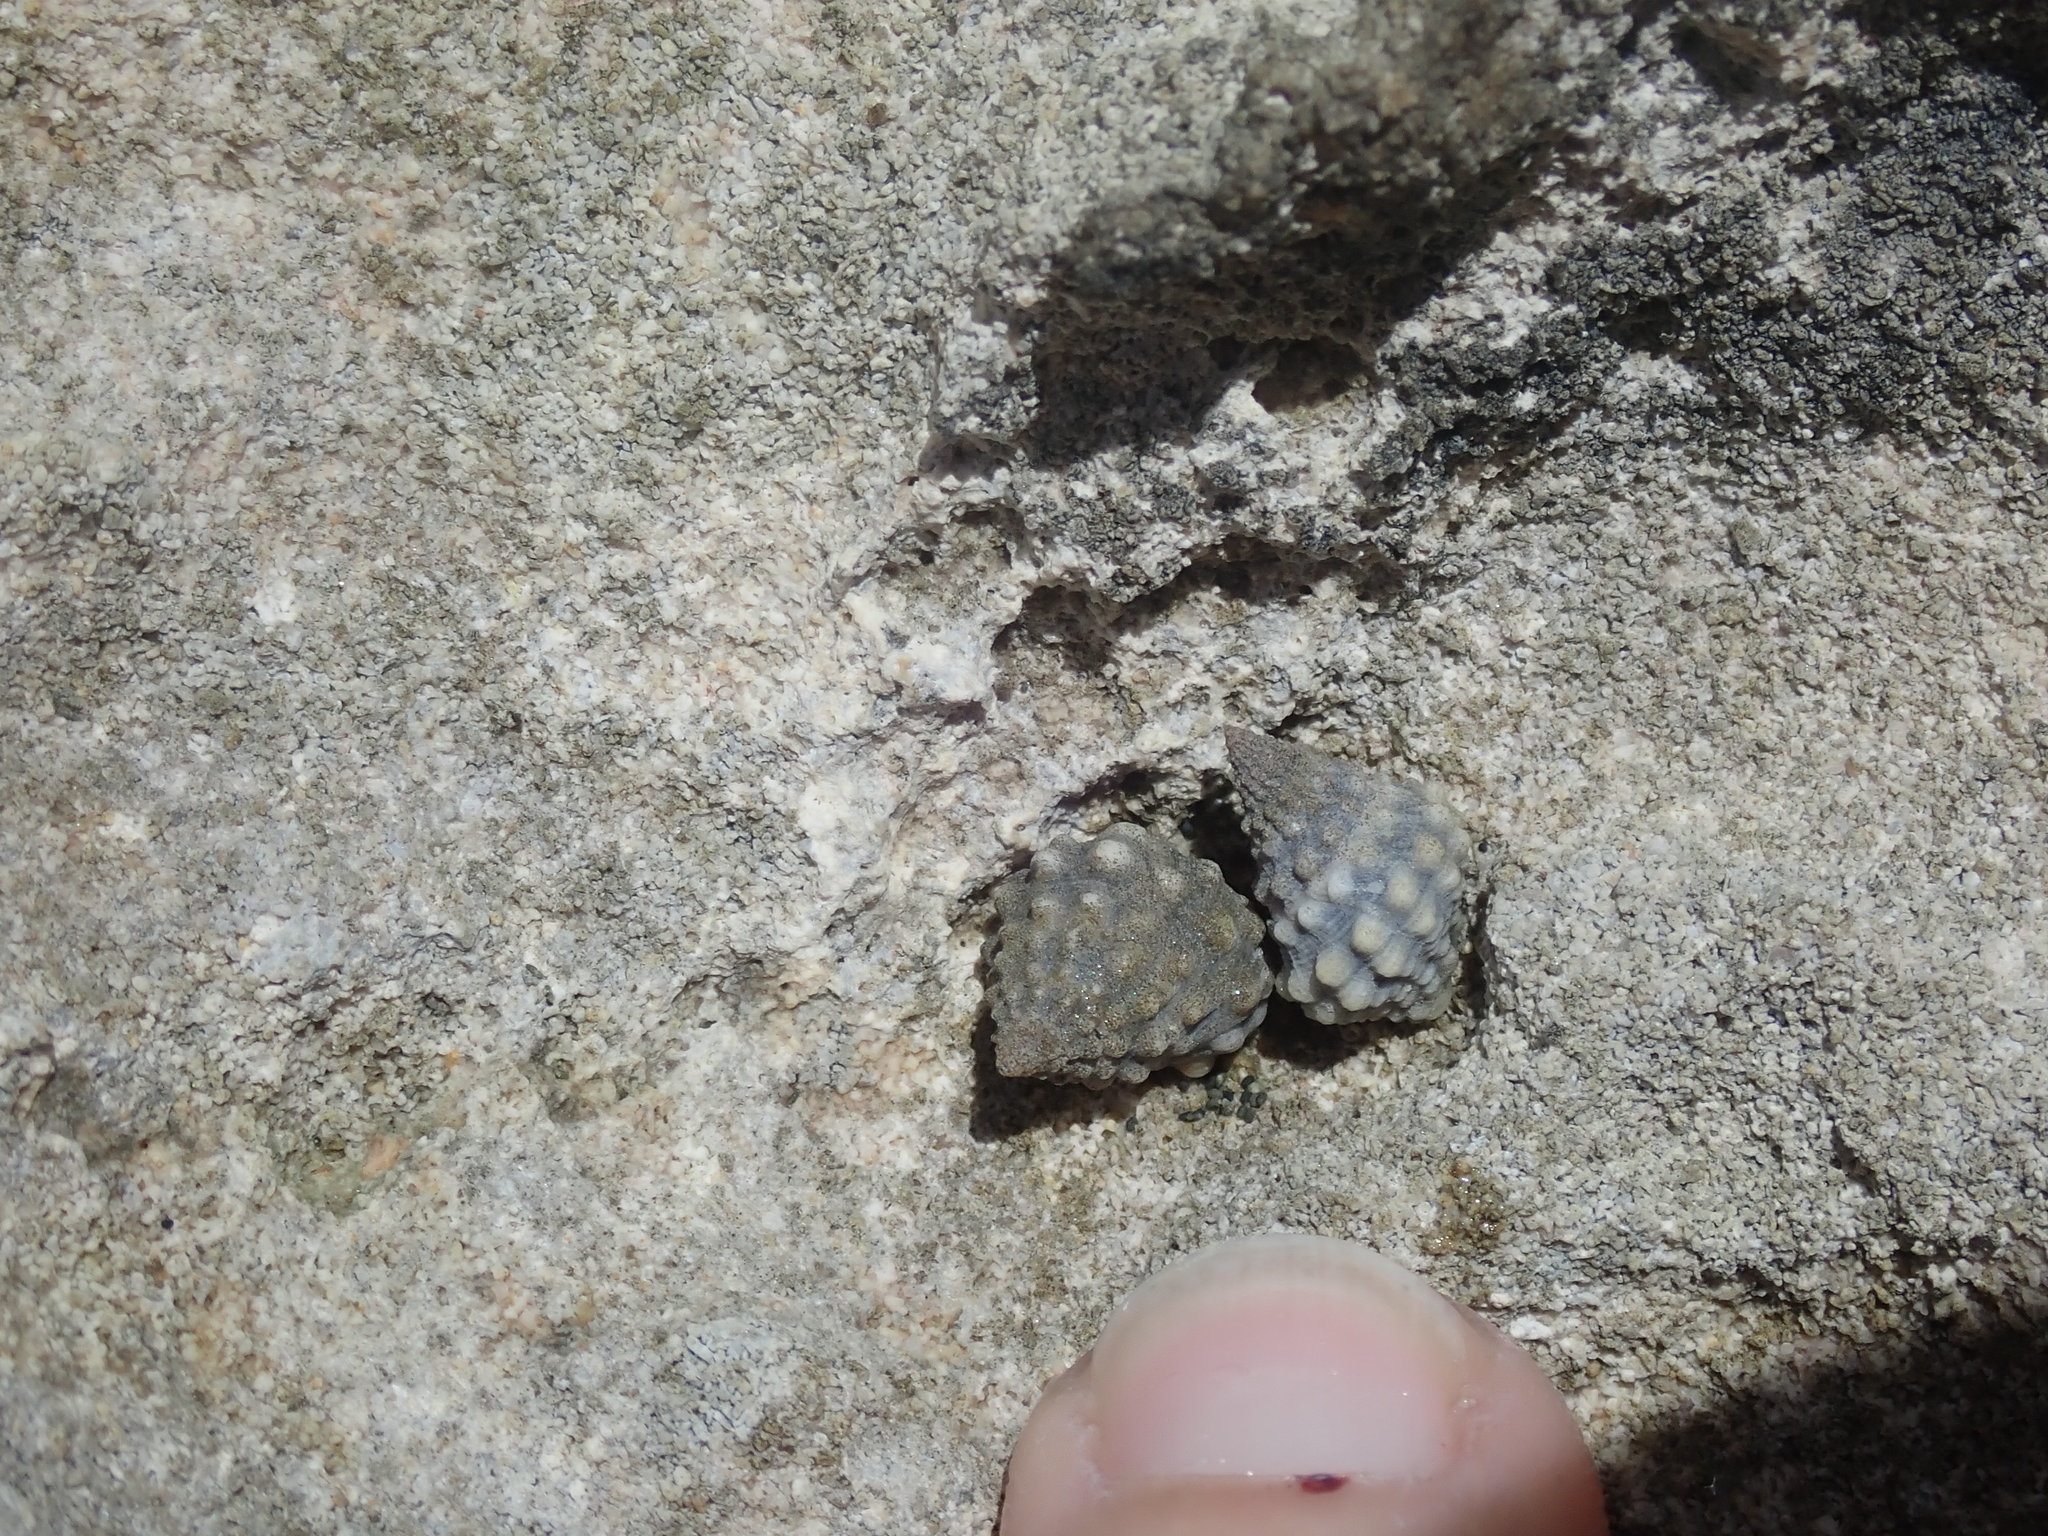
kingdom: Animalia
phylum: Mollusca
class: Gastropoda
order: Littorinimorpha
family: Littorinidae
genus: Echinolittorina
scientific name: Echinolittorina tuberculata
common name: Common periwinkle
